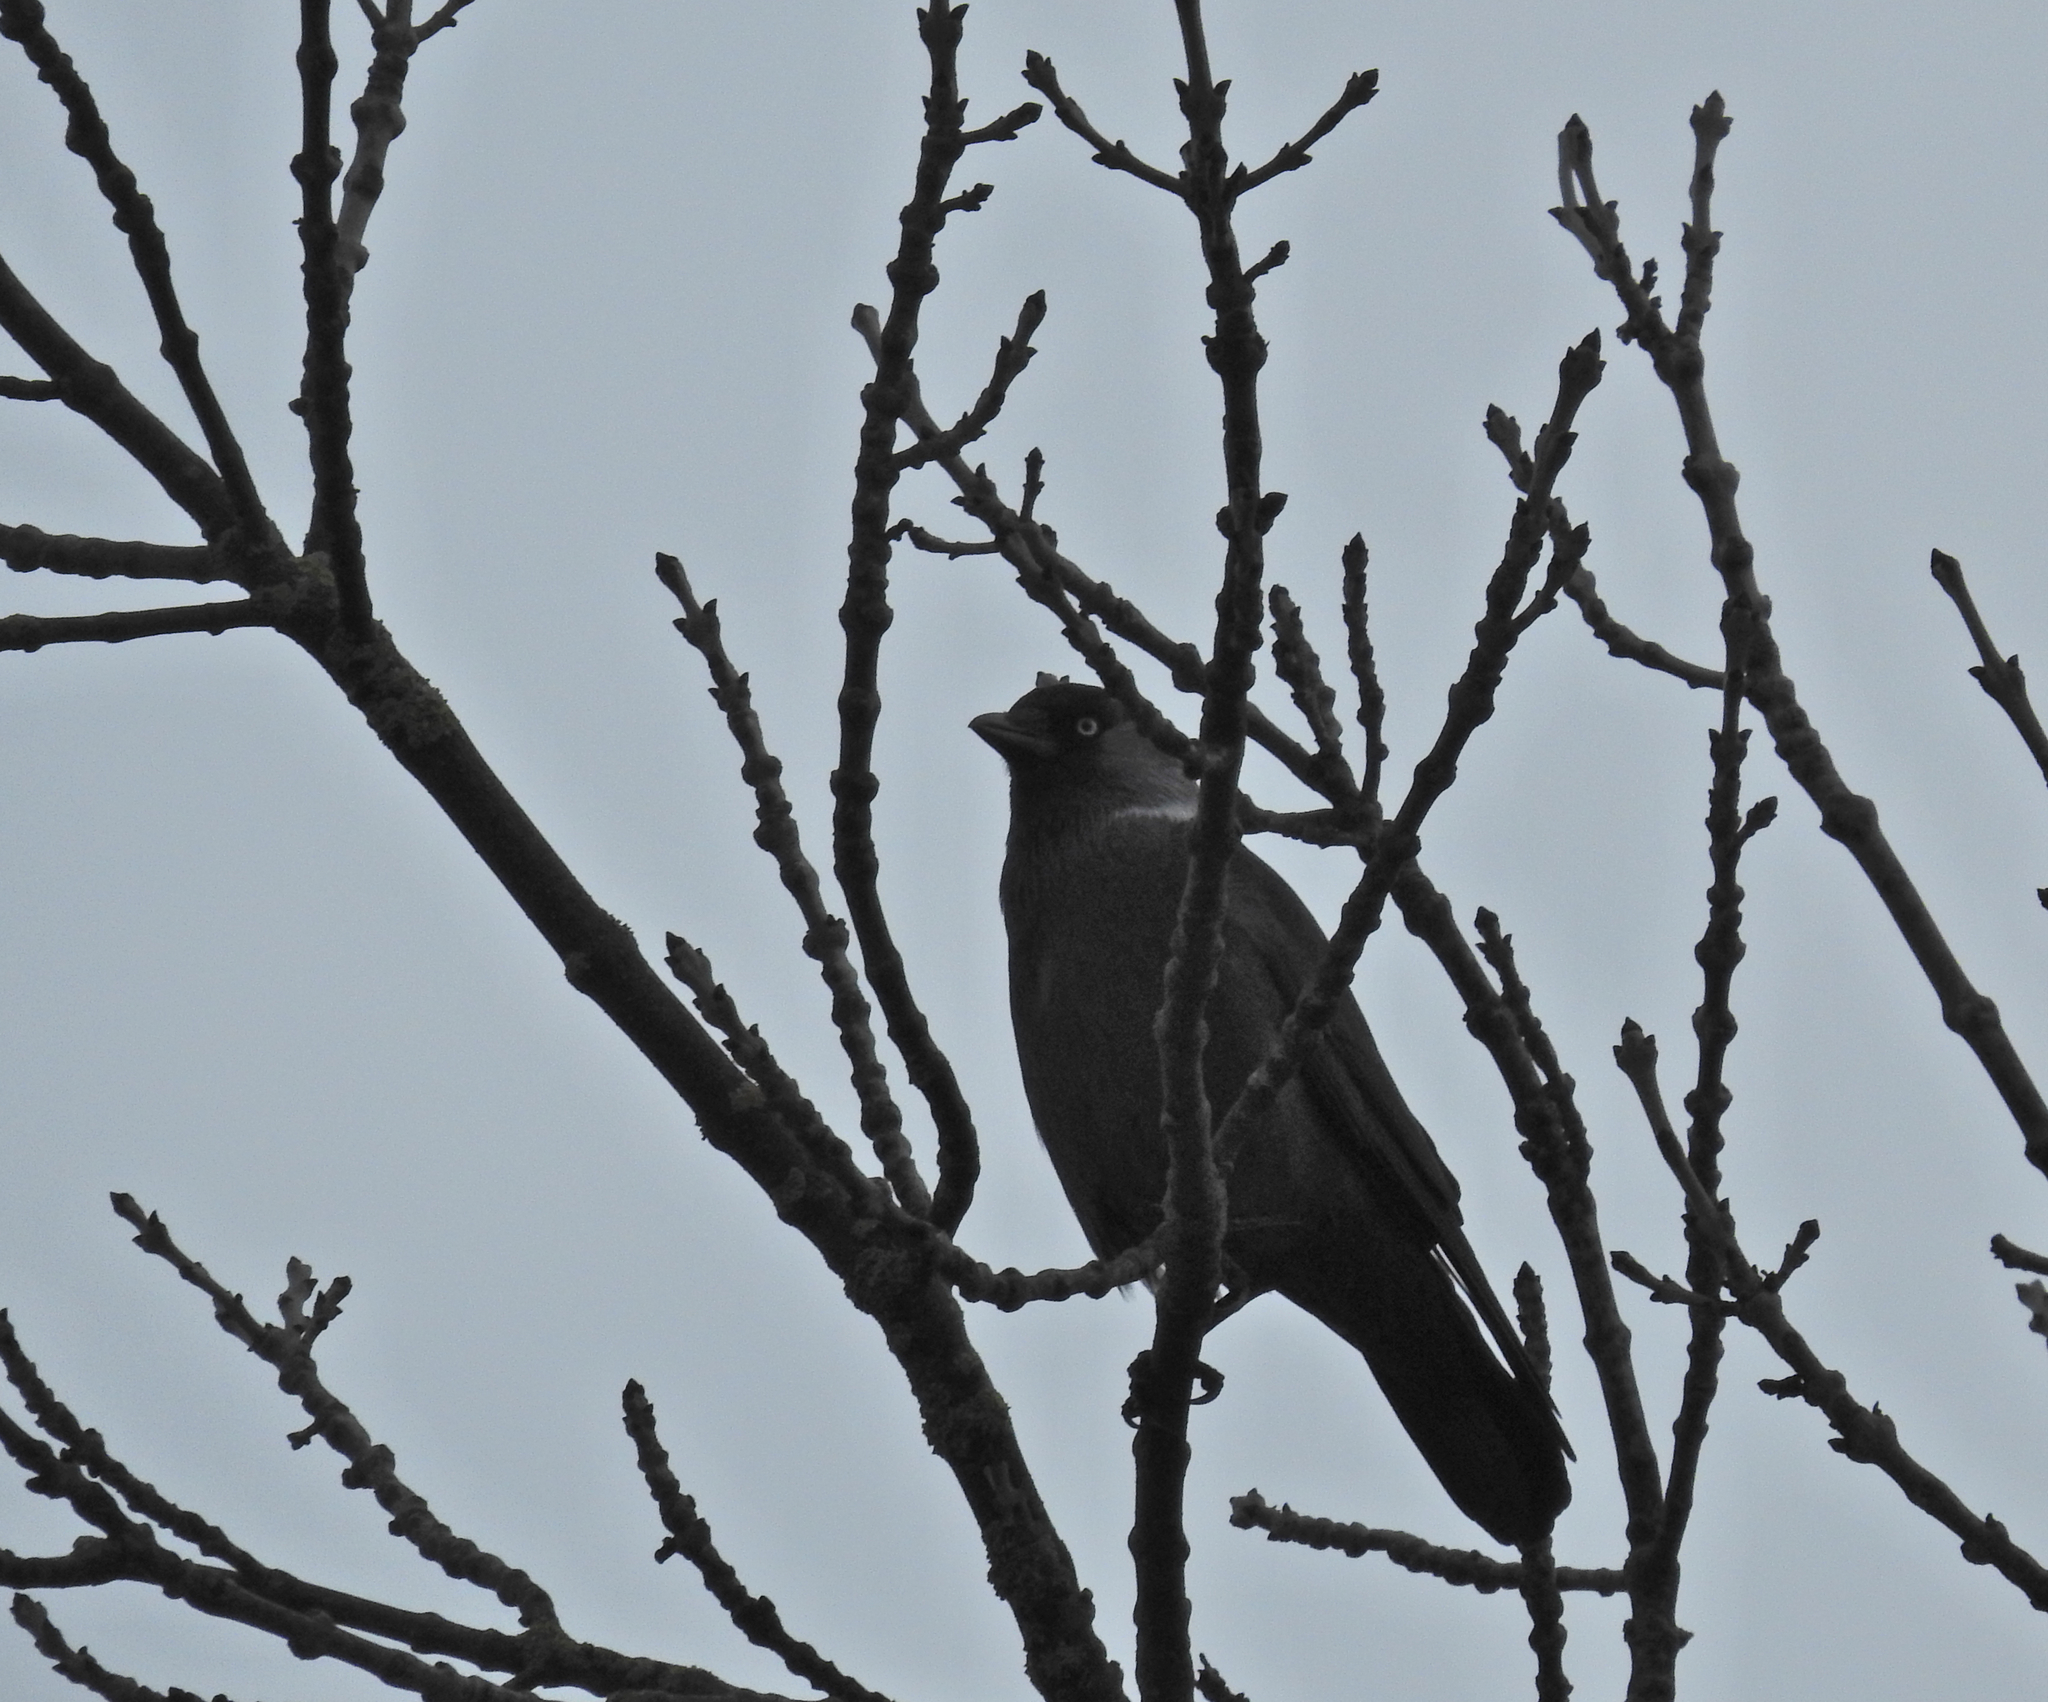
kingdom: Animalia
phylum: Chordata
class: Aves
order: Passeriformes
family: Corvidae
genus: Coloeus
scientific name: Coloeus monedula
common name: Western jackdaw
